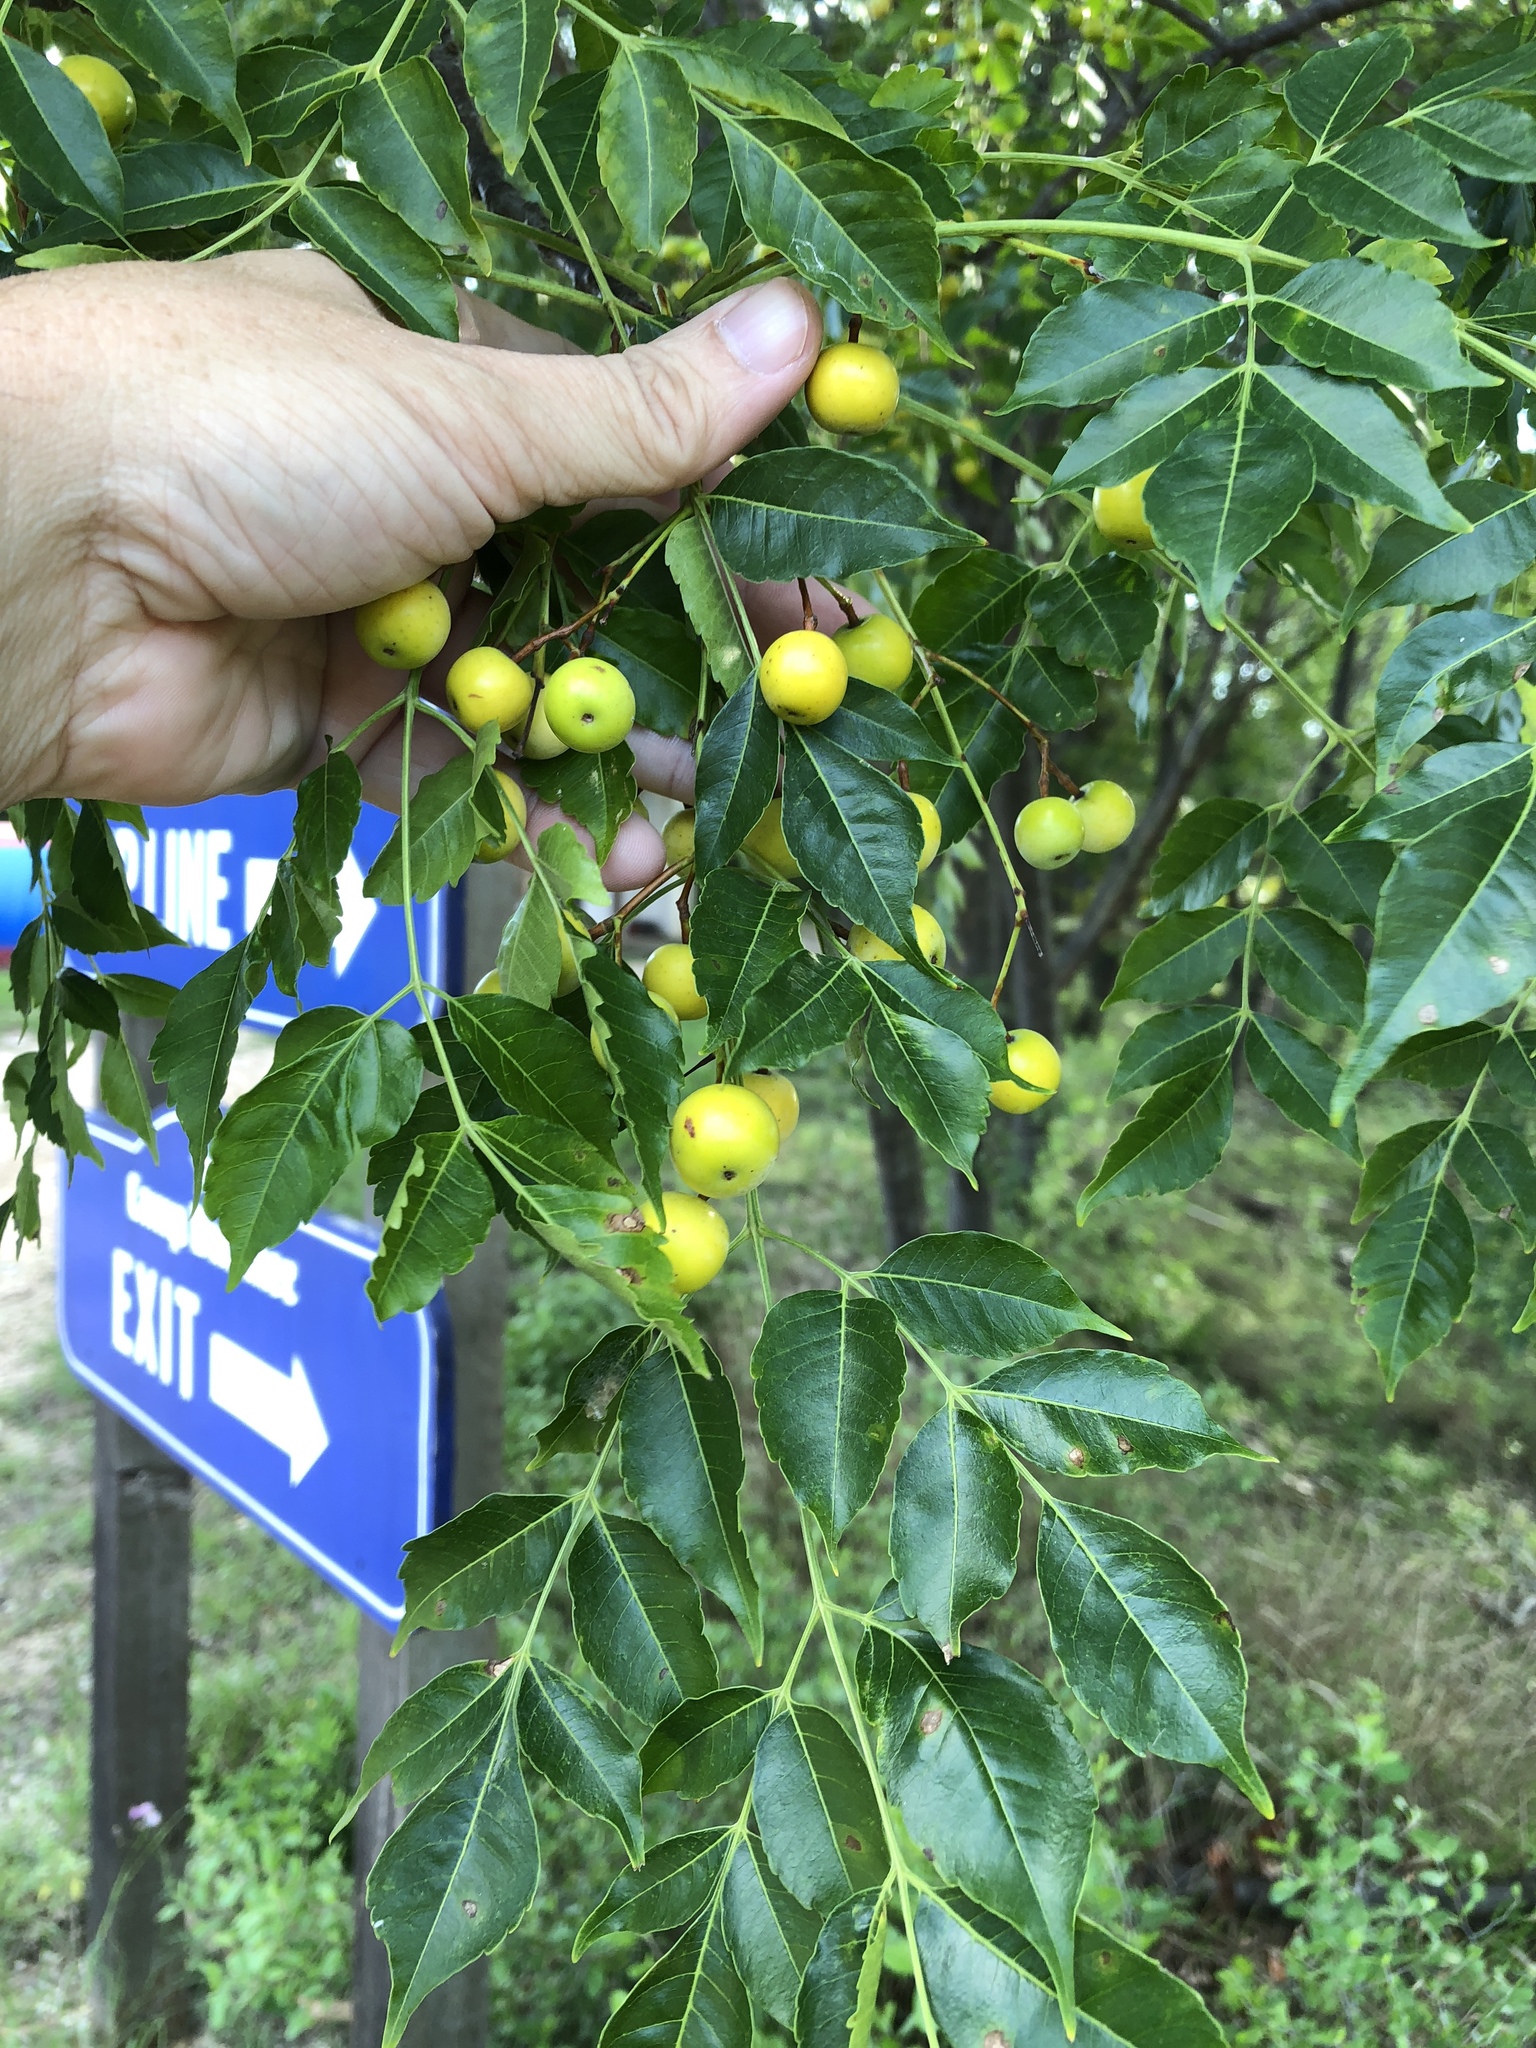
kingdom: Plantae
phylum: Tracheophyta
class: Magnoliopsida
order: Sapindales
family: Meliaceae
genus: Melia
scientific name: Melia azedarach
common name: Chinaberrytree
